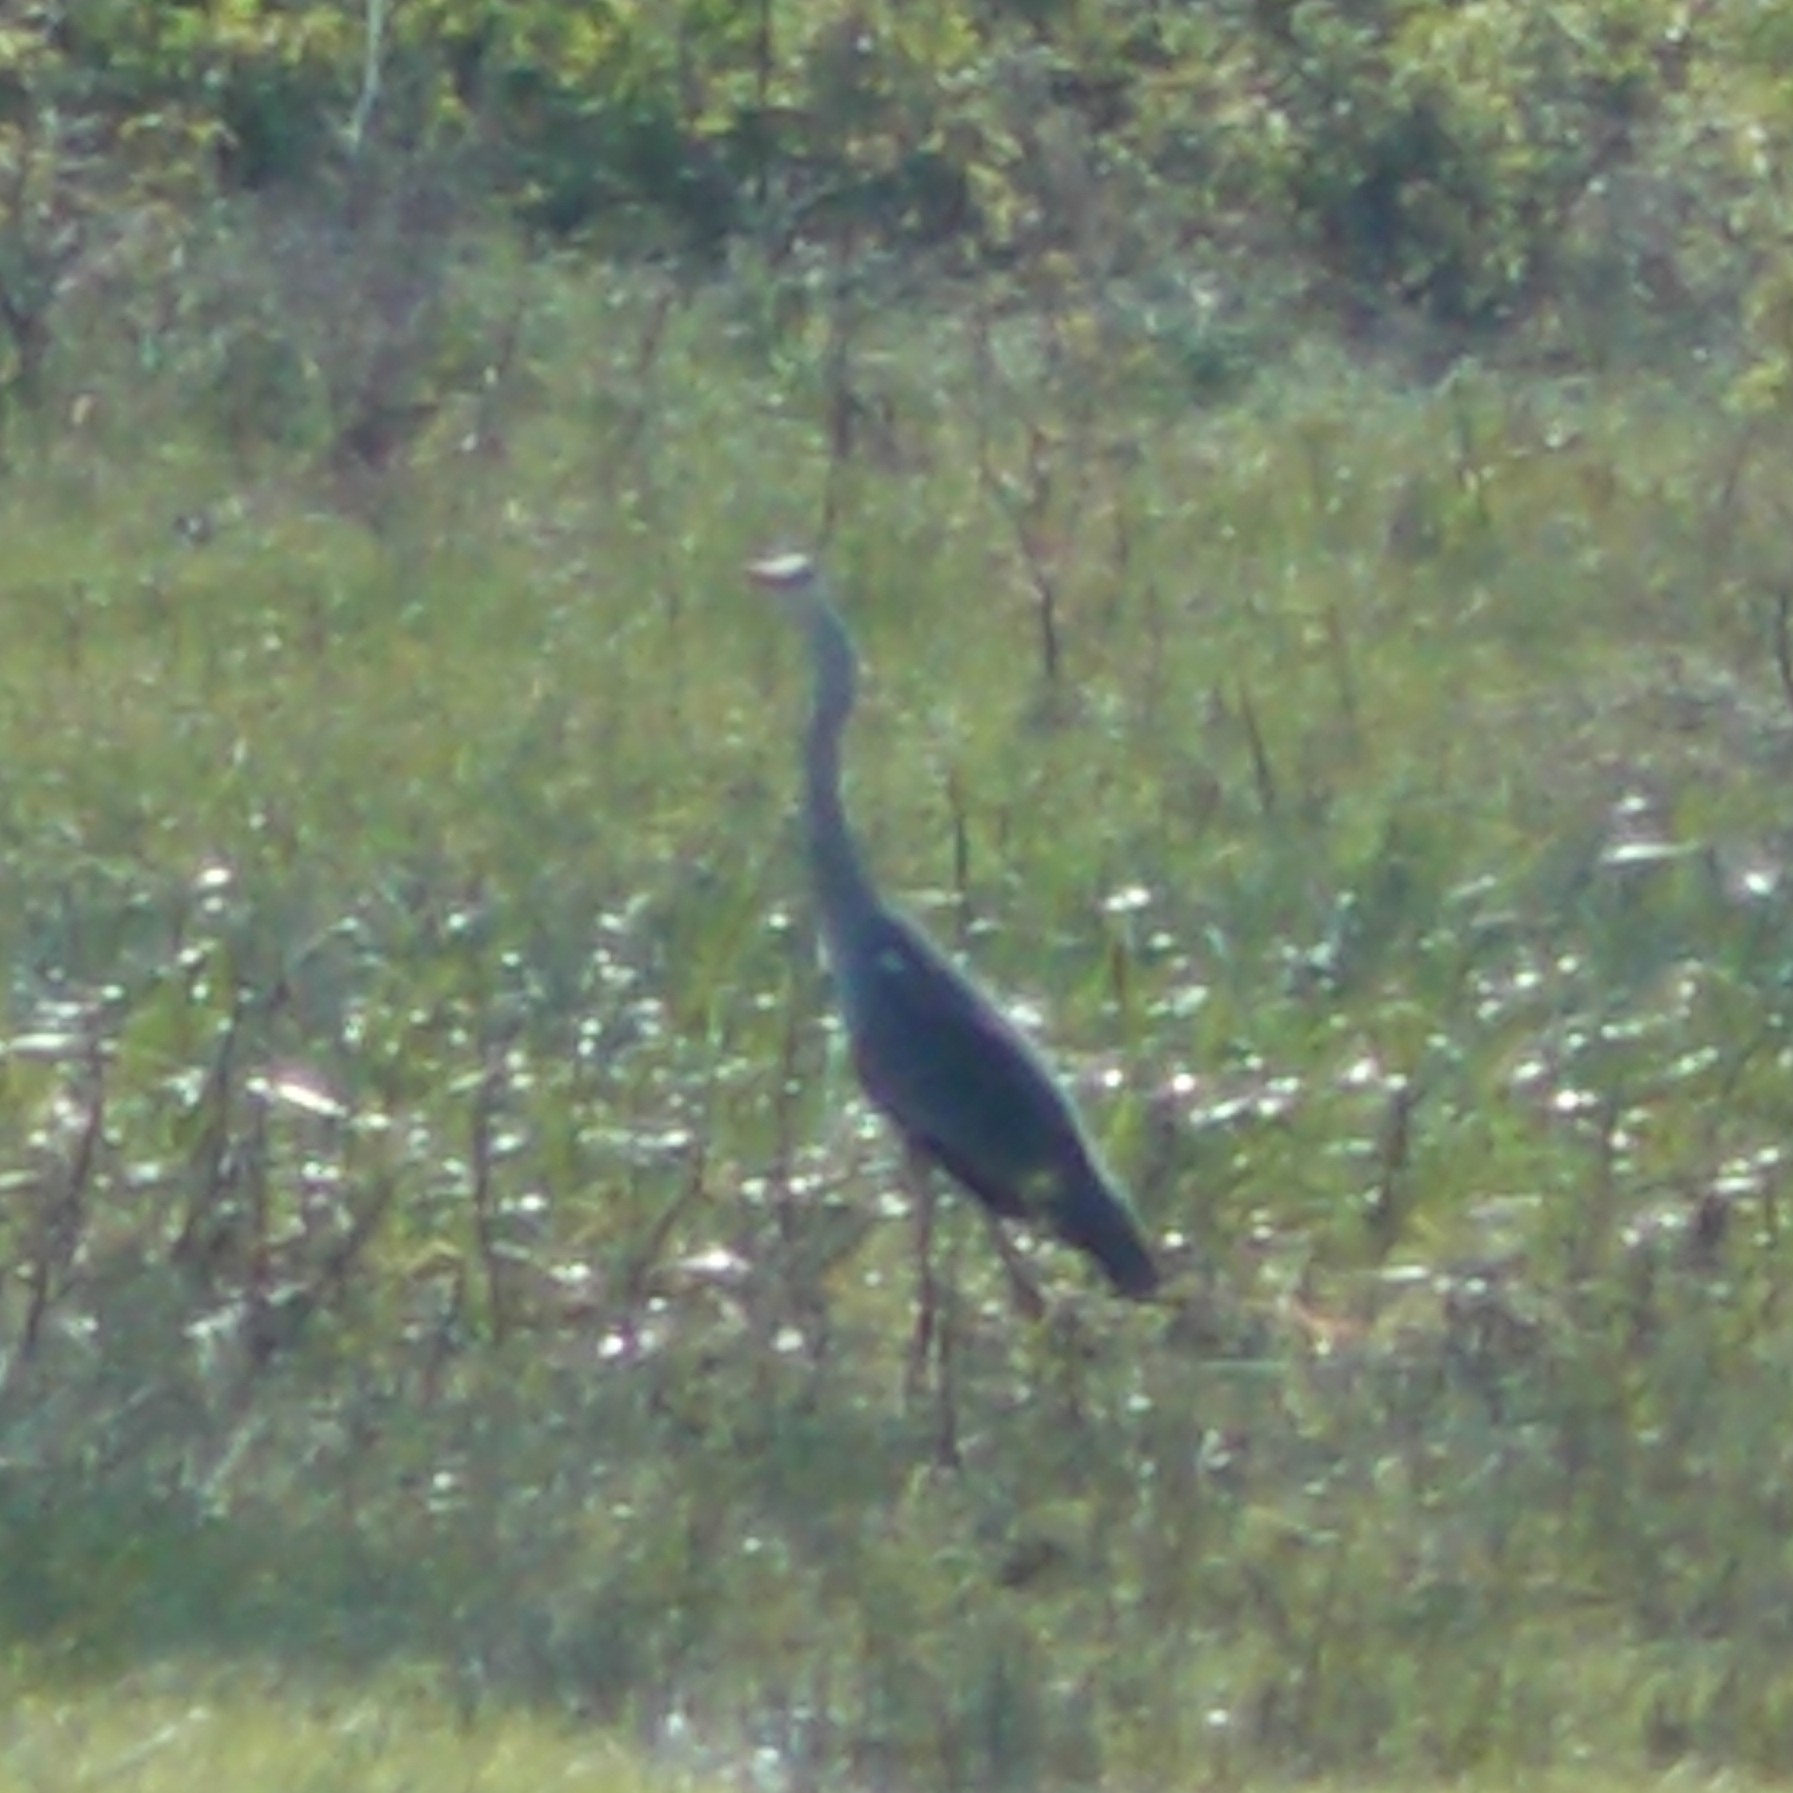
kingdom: Animalia
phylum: Chordata
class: Aves
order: Pelecaniformes
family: Ardeidae
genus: Ardea
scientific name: Ardea cinerea
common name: Grey heron
